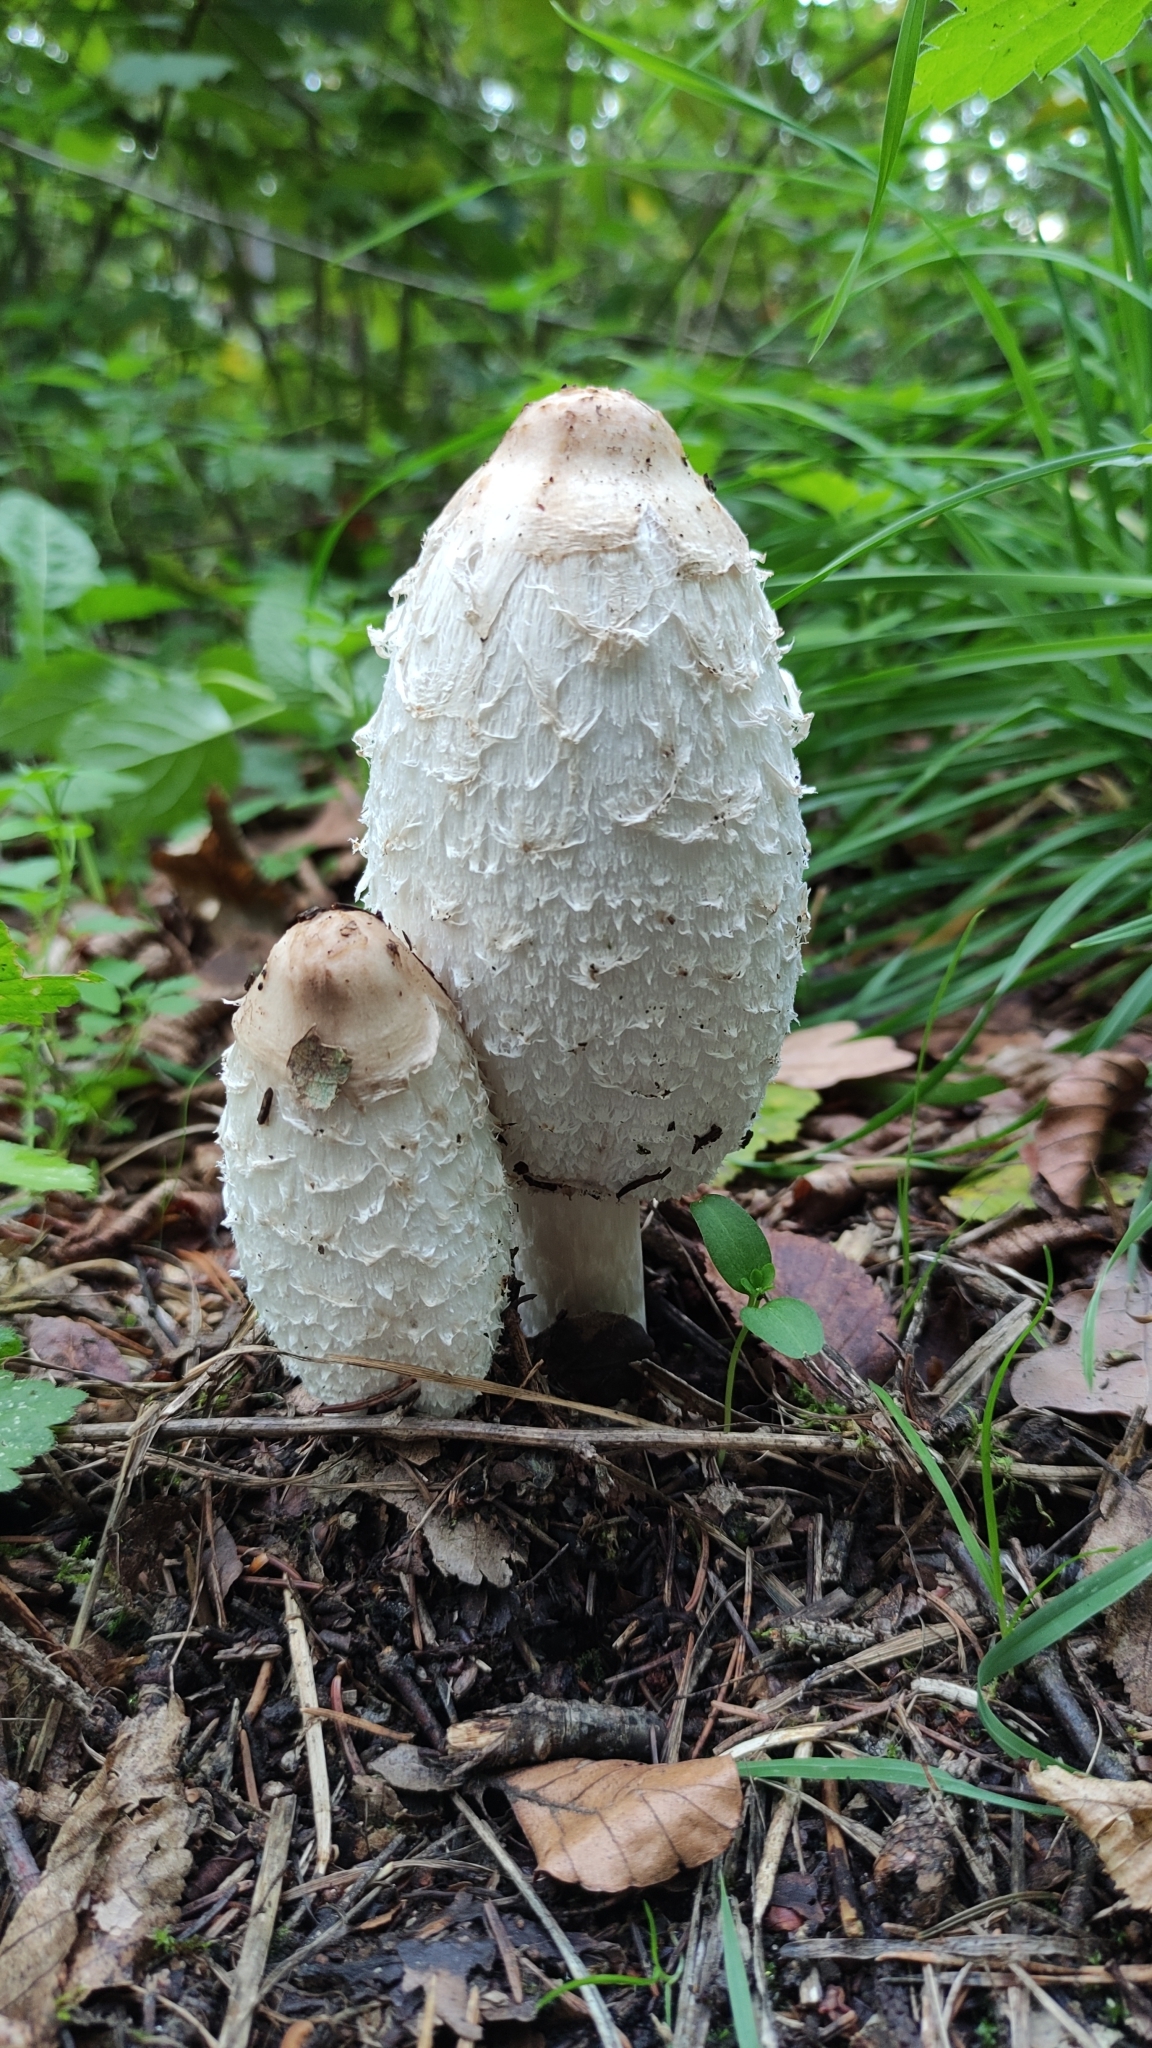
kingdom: Fungi
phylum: Basidiomycota
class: Agaricomycetes
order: Agaricales
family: Agaricaceae
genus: Coprinus
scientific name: Coprinus comatus
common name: Lawyer's wig
